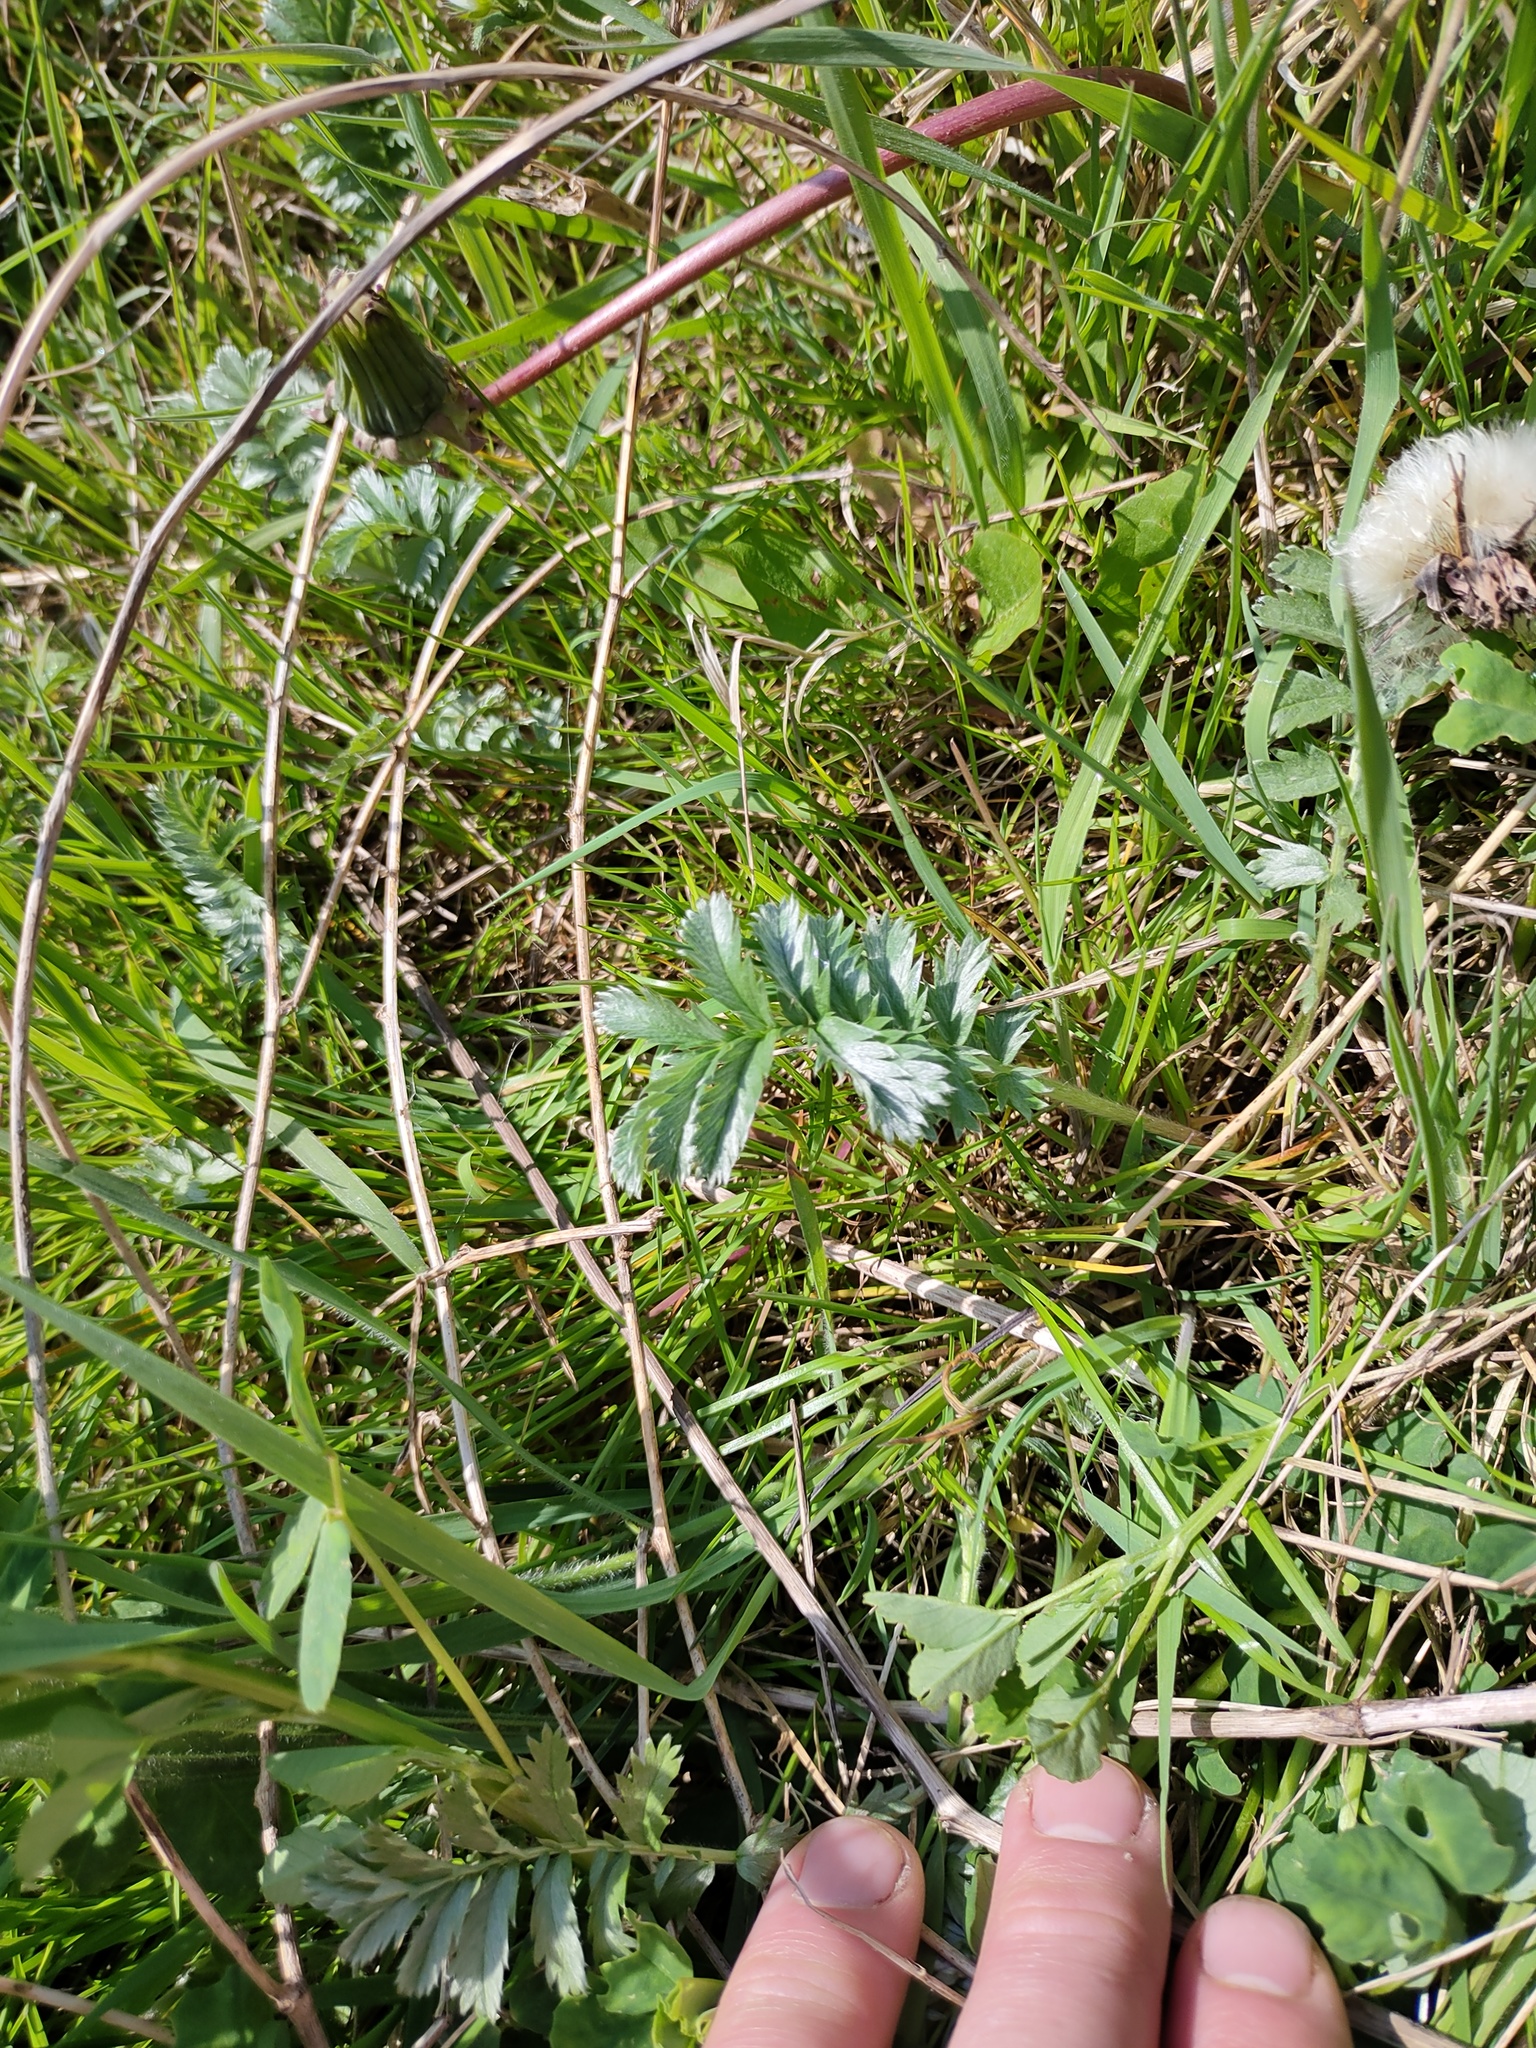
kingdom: Plantae
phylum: Tracheophyta
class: Magnoliopsida
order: Rosales
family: Rosaceae
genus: Argentina
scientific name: Argentina anserina
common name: Common silverweed
